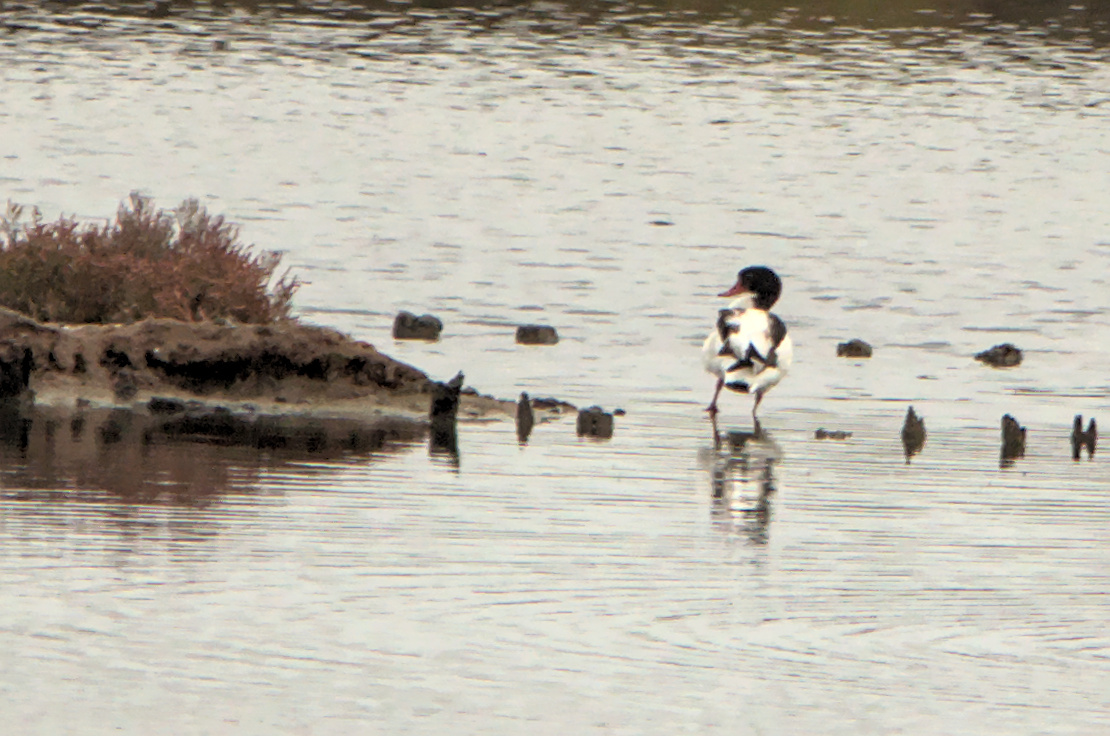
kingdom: Animalia
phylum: Chordata
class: Aves
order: Anseriformes
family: Anatidae
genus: Tadorna
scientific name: Tadorna tadorna
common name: Common shelduck
